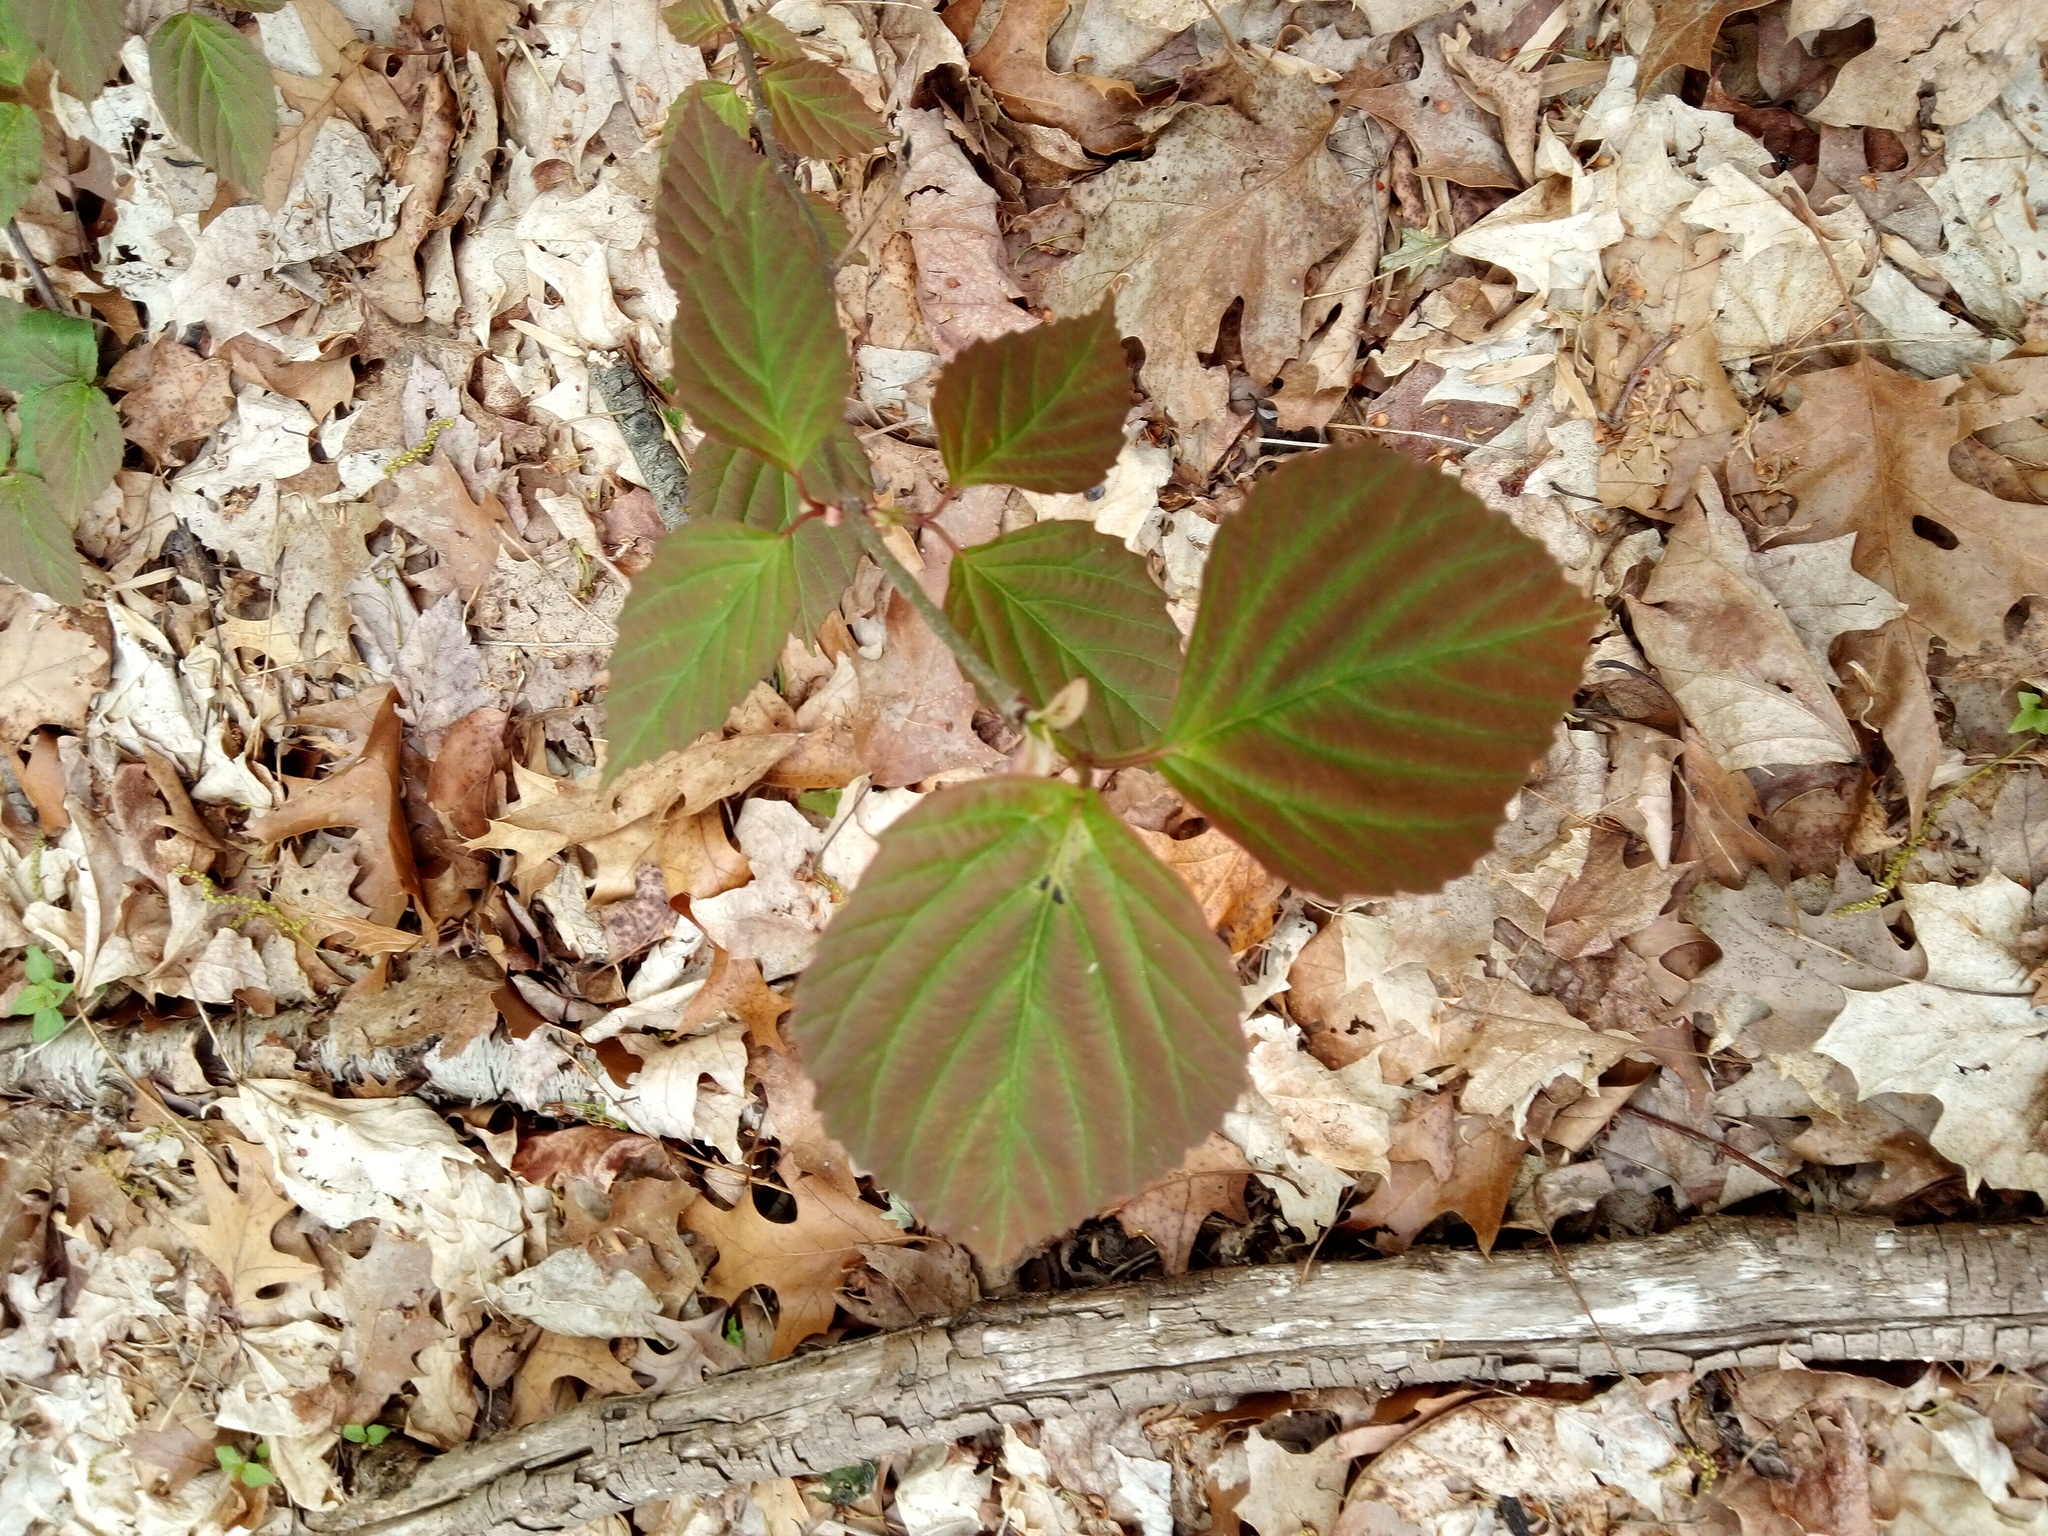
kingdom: Plantae
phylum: Tracheophyta
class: Magnoliopsida
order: Dipsacales
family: Viburnaceae
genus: Viburnum
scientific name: Viburnum setigerum
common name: Tea viburnum
